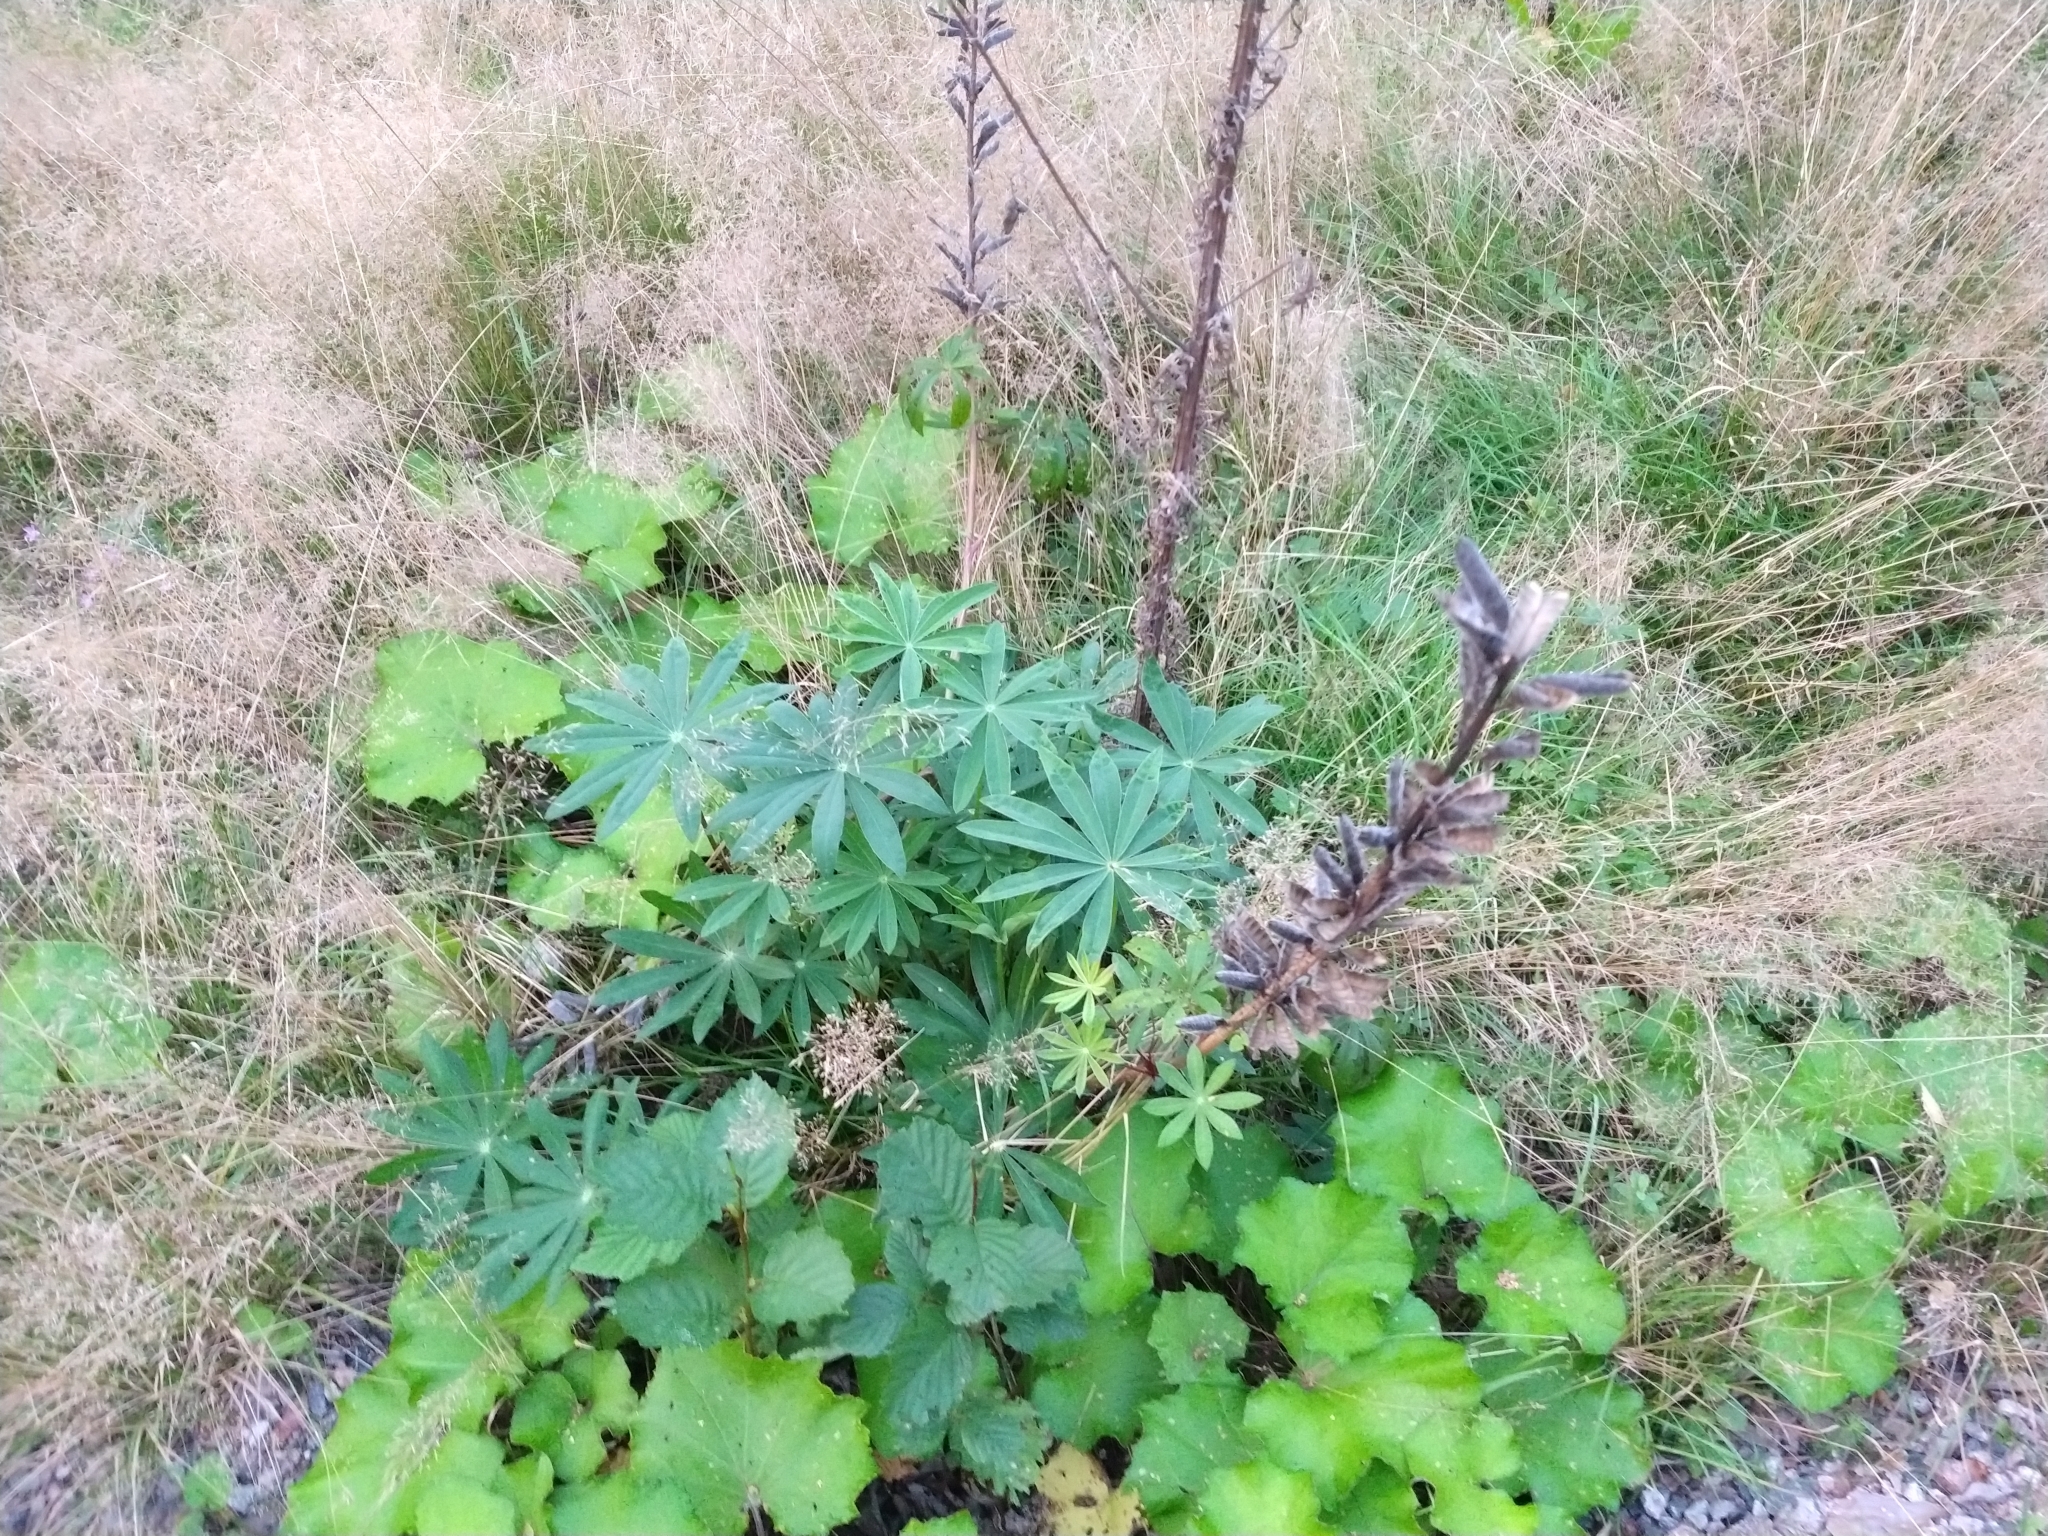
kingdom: Plantae
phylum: Tracheophyta
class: Magnoliopsida
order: Fabales
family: Fabaceae
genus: Lupinus
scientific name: Lupinus polyphyllus
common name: Garden lupin
